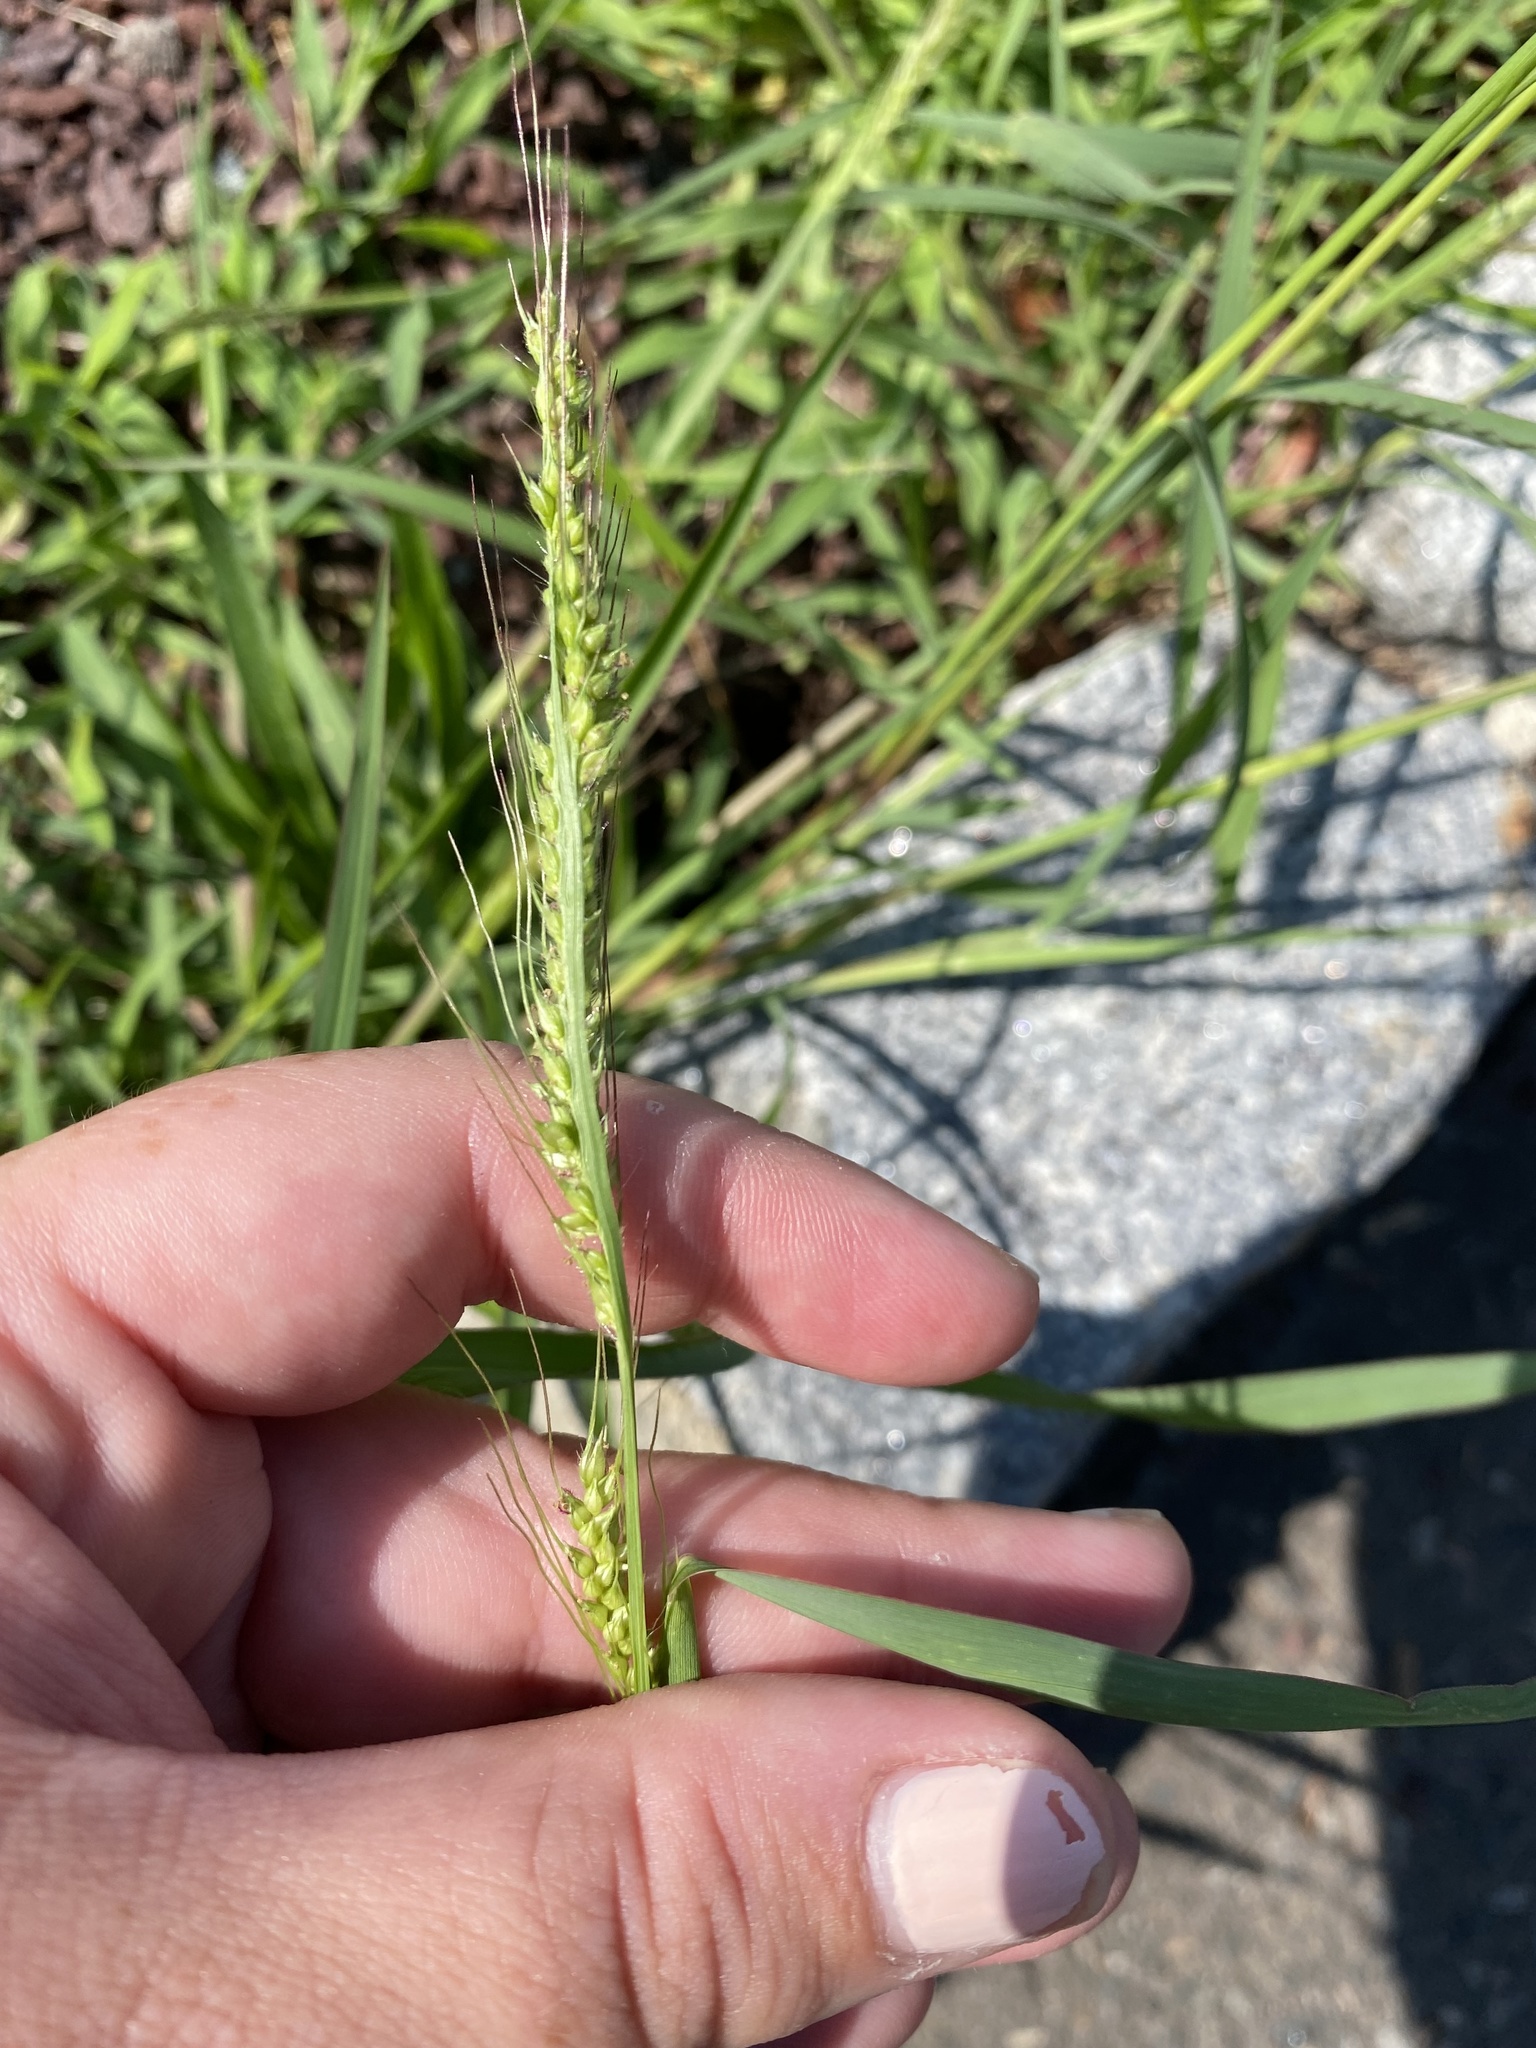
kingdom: Plantae
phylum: Tracheophyta
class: Liliopsida
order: Poales
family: Poaceae
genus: Echinochloa
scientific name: Echinochloa crus-galli
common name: Cockspur
